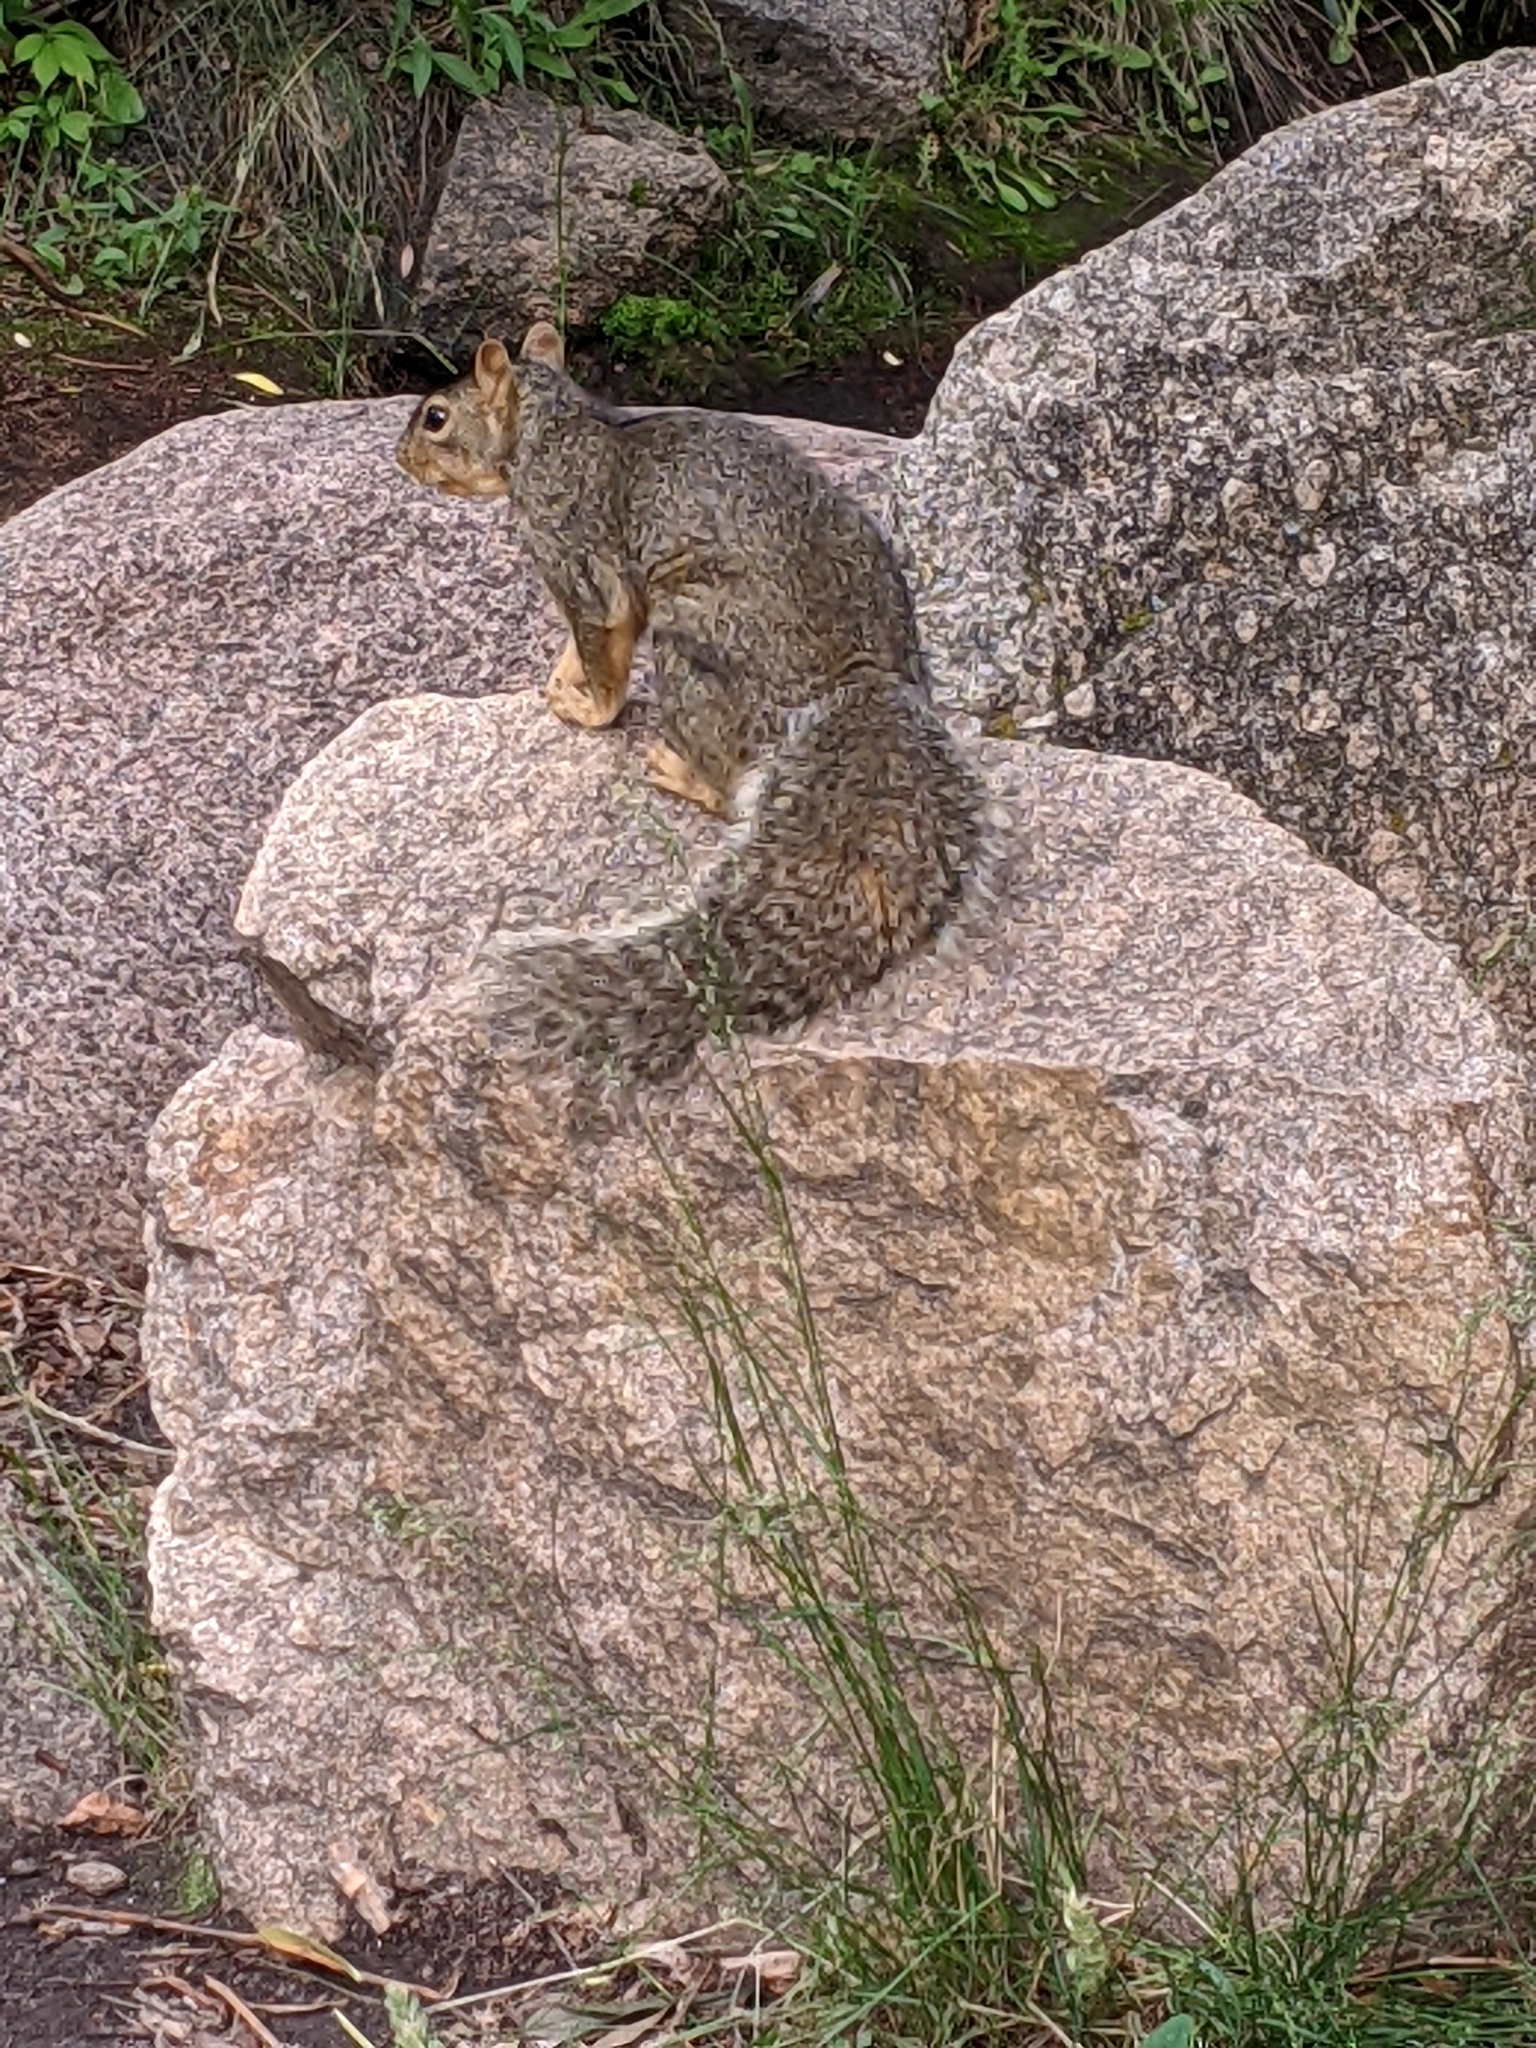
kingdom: Animalia
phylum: Chordata
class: Mammalia
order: Rodentia
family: Sciuridae
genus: Sciurus
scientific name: Sciurus niger
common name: Fox squirrel
